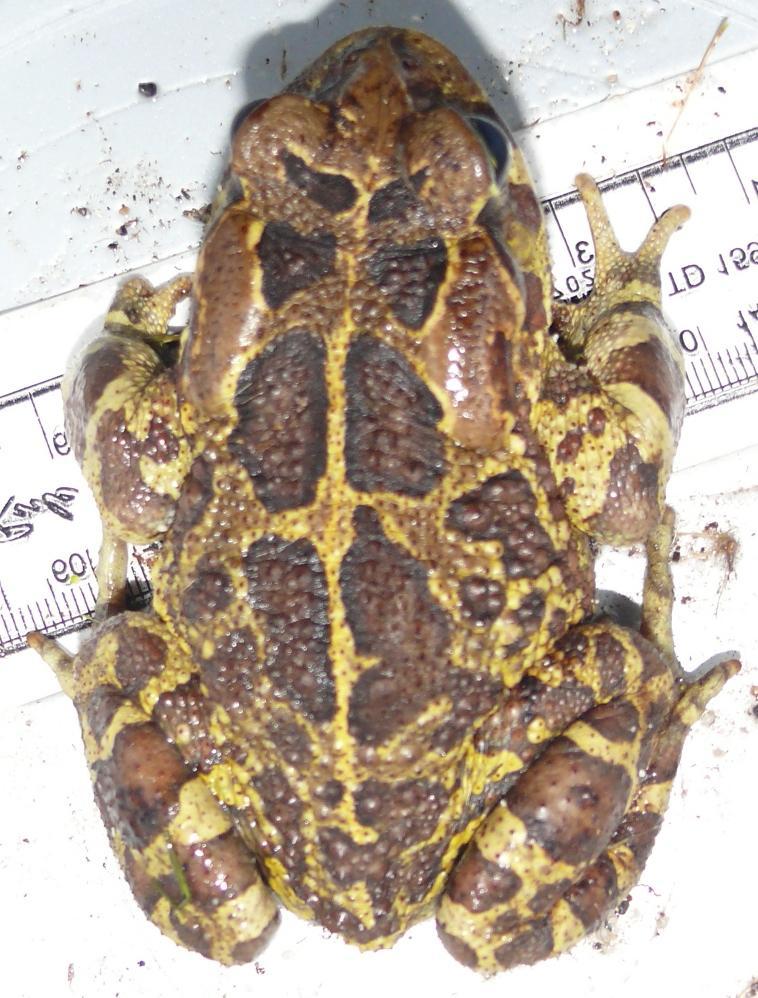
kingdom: Animalia
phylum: Chordata
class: Amphibia
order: Anura
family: Bufonidae
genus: Sclerophrys
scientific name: Sclerophrys pantherina
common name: Panther toad
